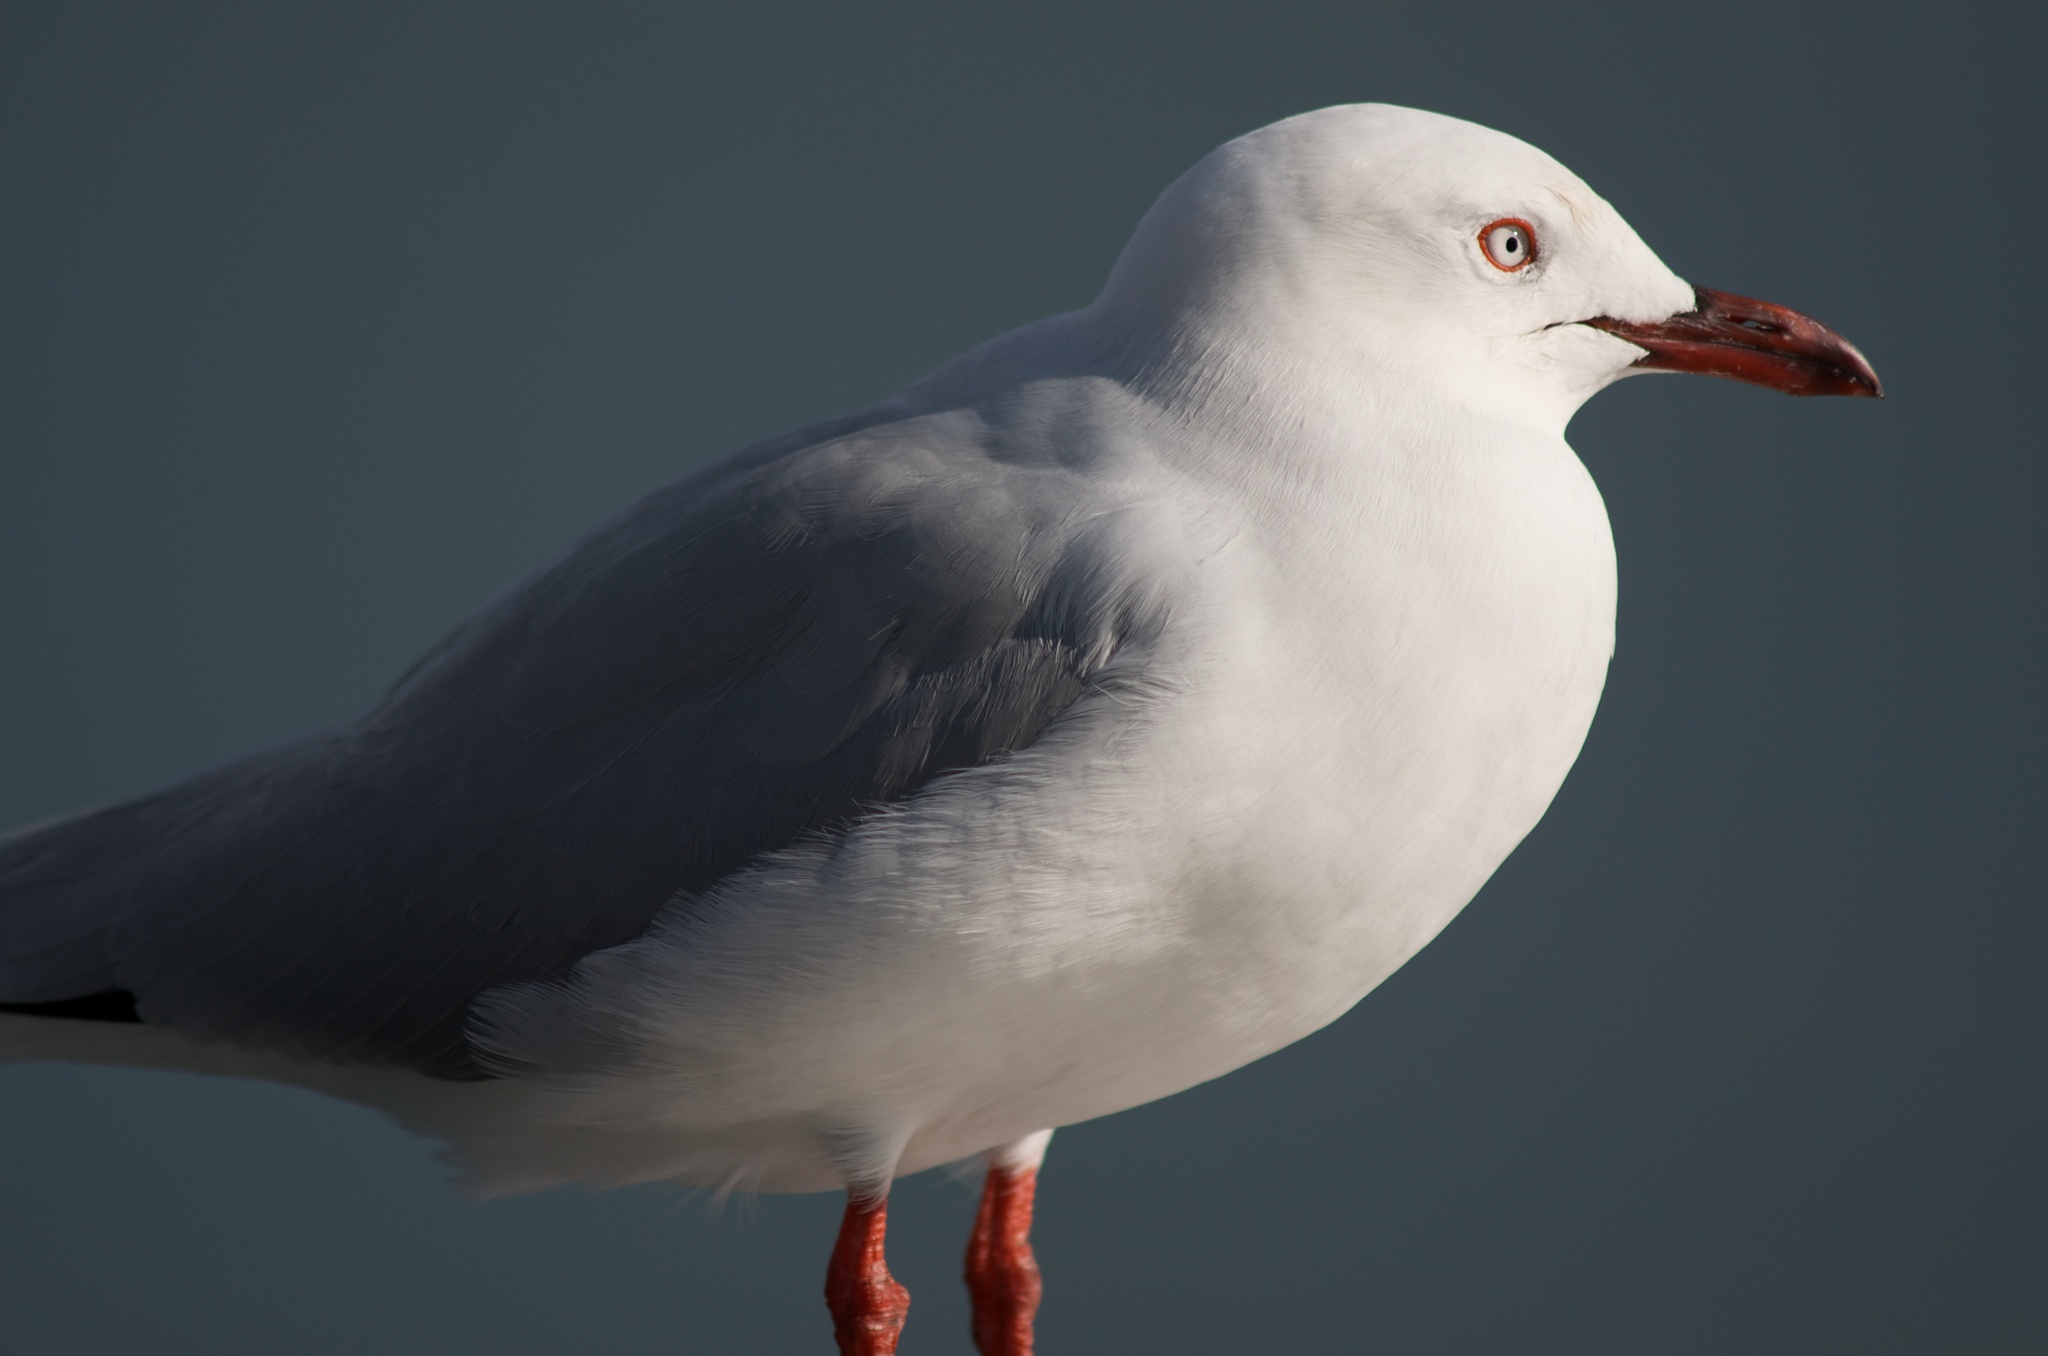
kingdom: Animalia
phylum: Chordata
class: Aves
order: Charadriiformes
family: Laridae
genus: Chroicocephalus
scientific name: Chroicocephalus novaehollandiae
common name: Silver gull
